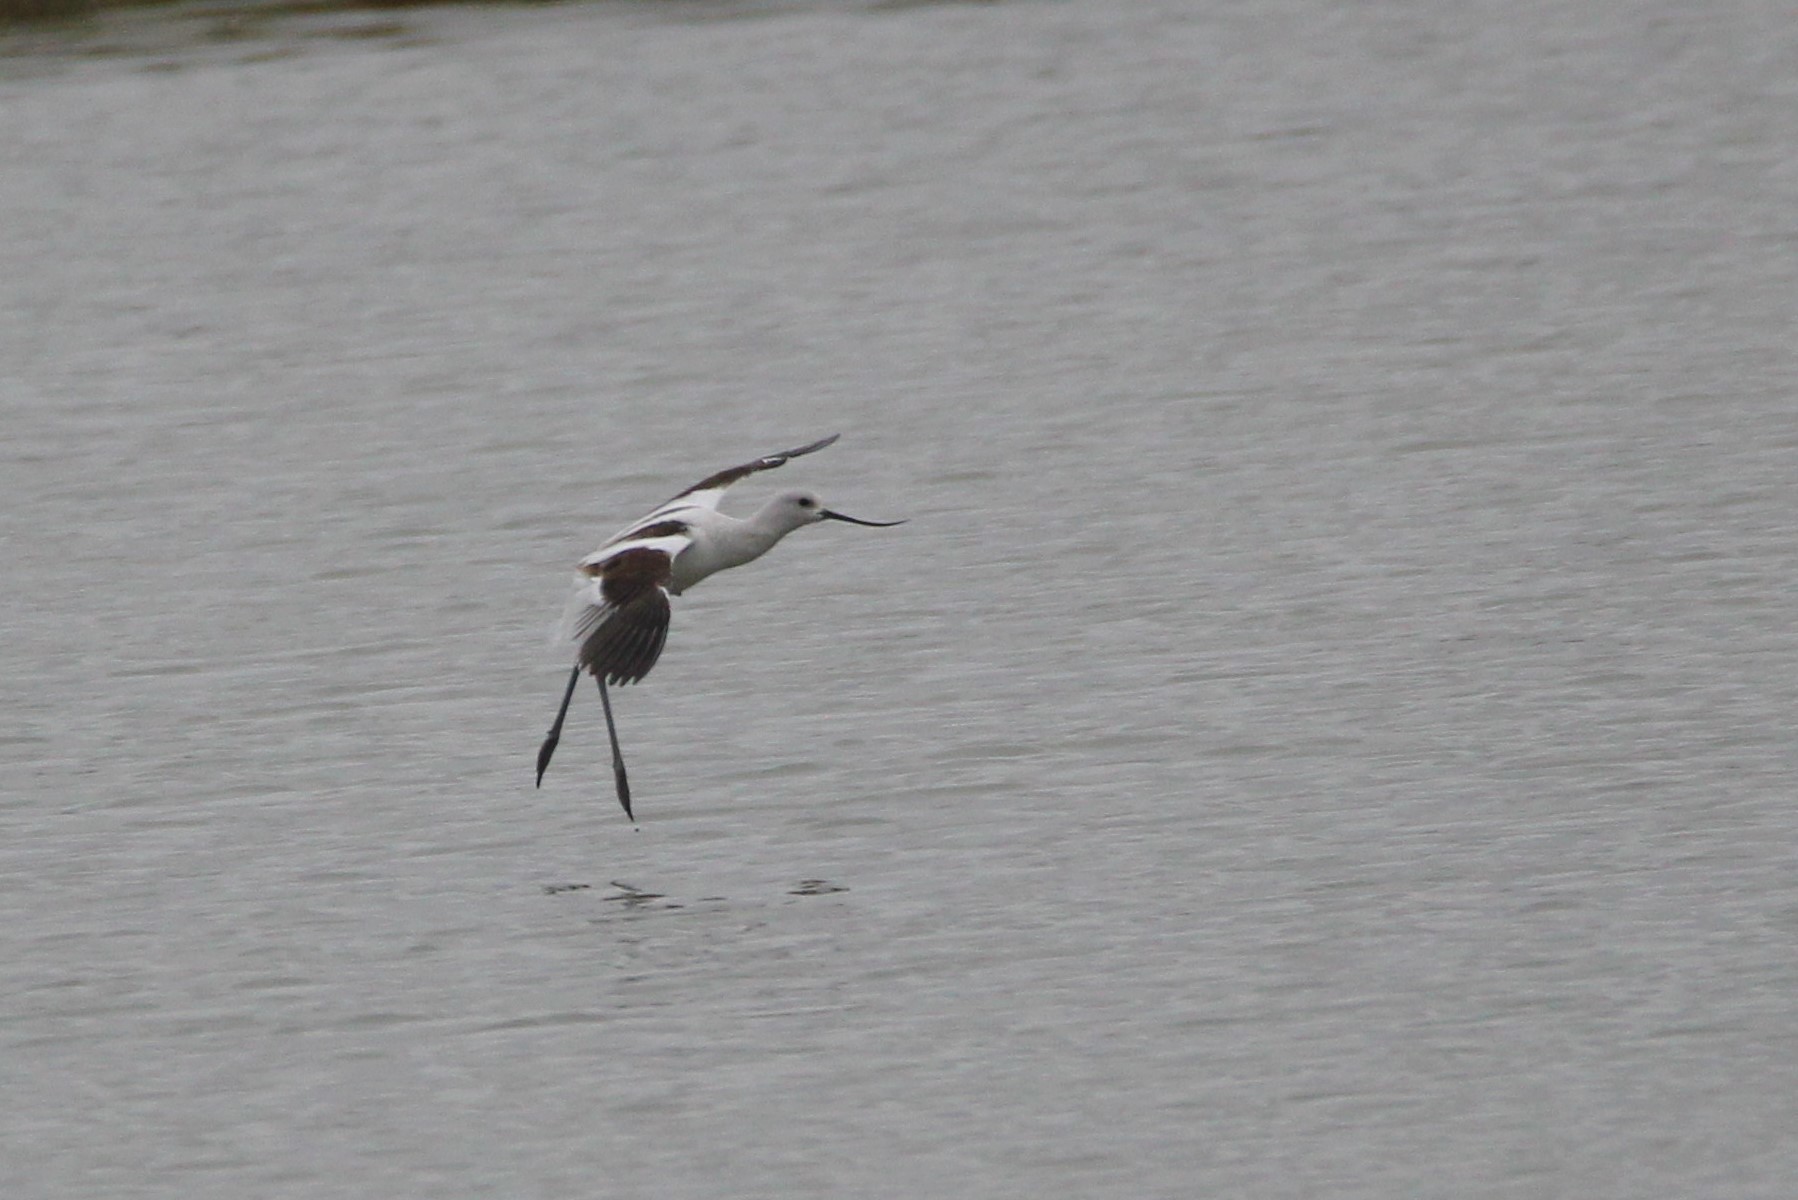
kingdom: Animalia
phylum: Chordata
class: Aves
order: Charadriiformes
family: Recurvirostridae
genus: Recurvirostra
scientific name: Recurvirostra americana
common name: American avocet
